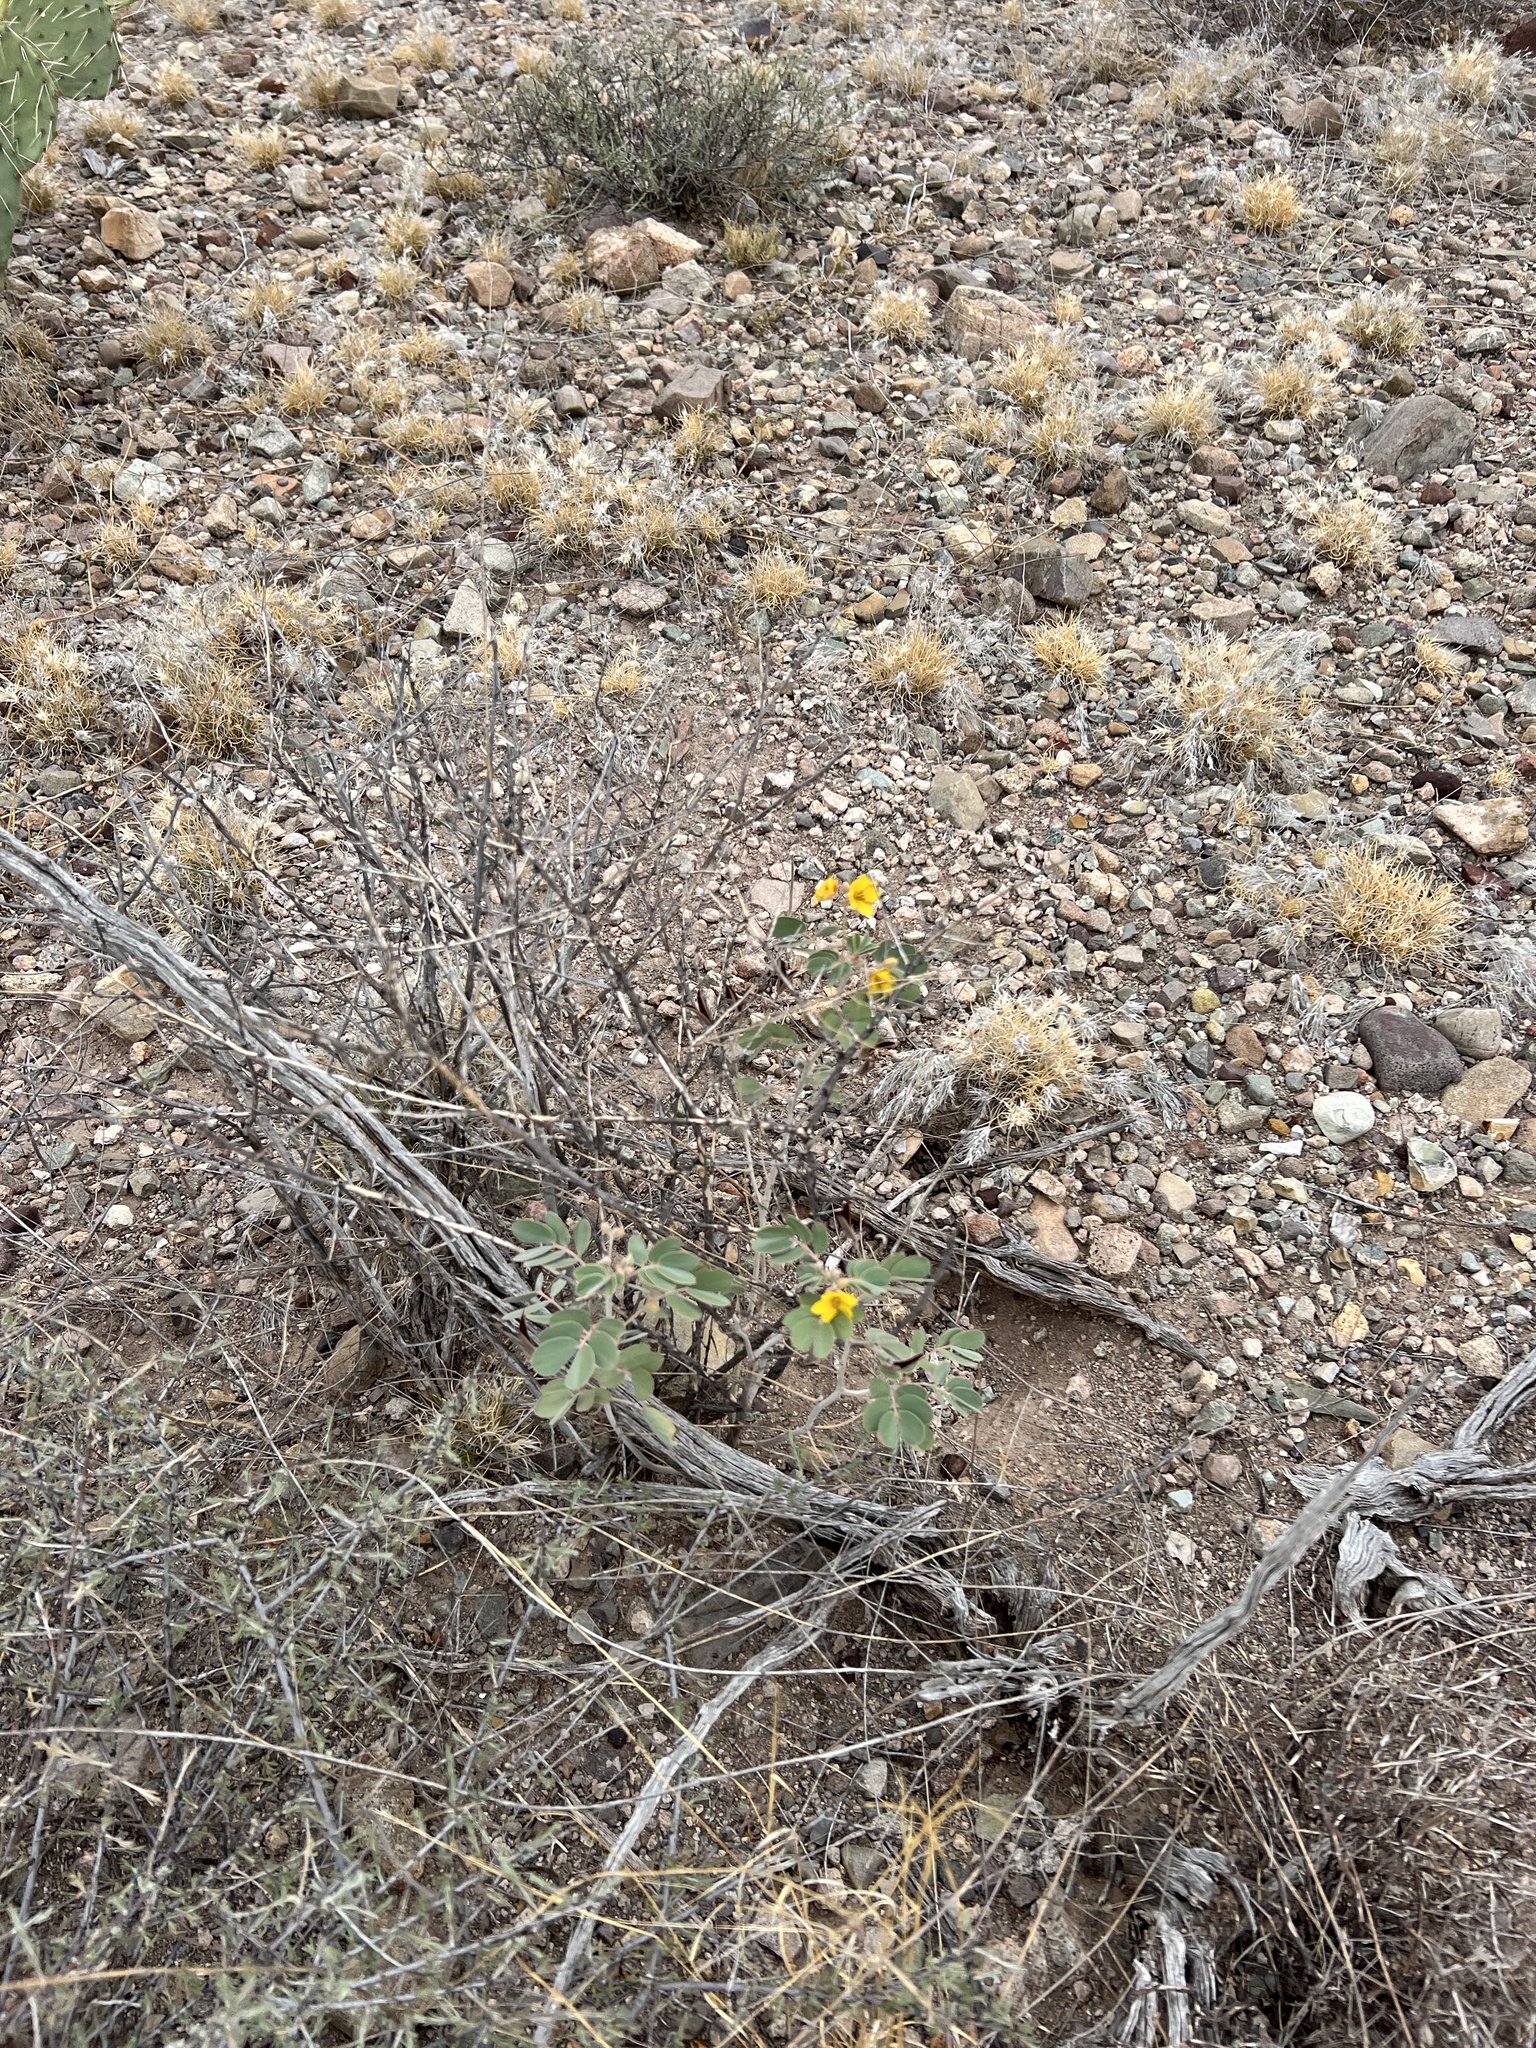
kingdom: Plantae
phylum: Tracheophyta
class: Magnoliopsida
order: Fabales
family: Fabaceae
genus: Senna
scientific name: Senna covesii
